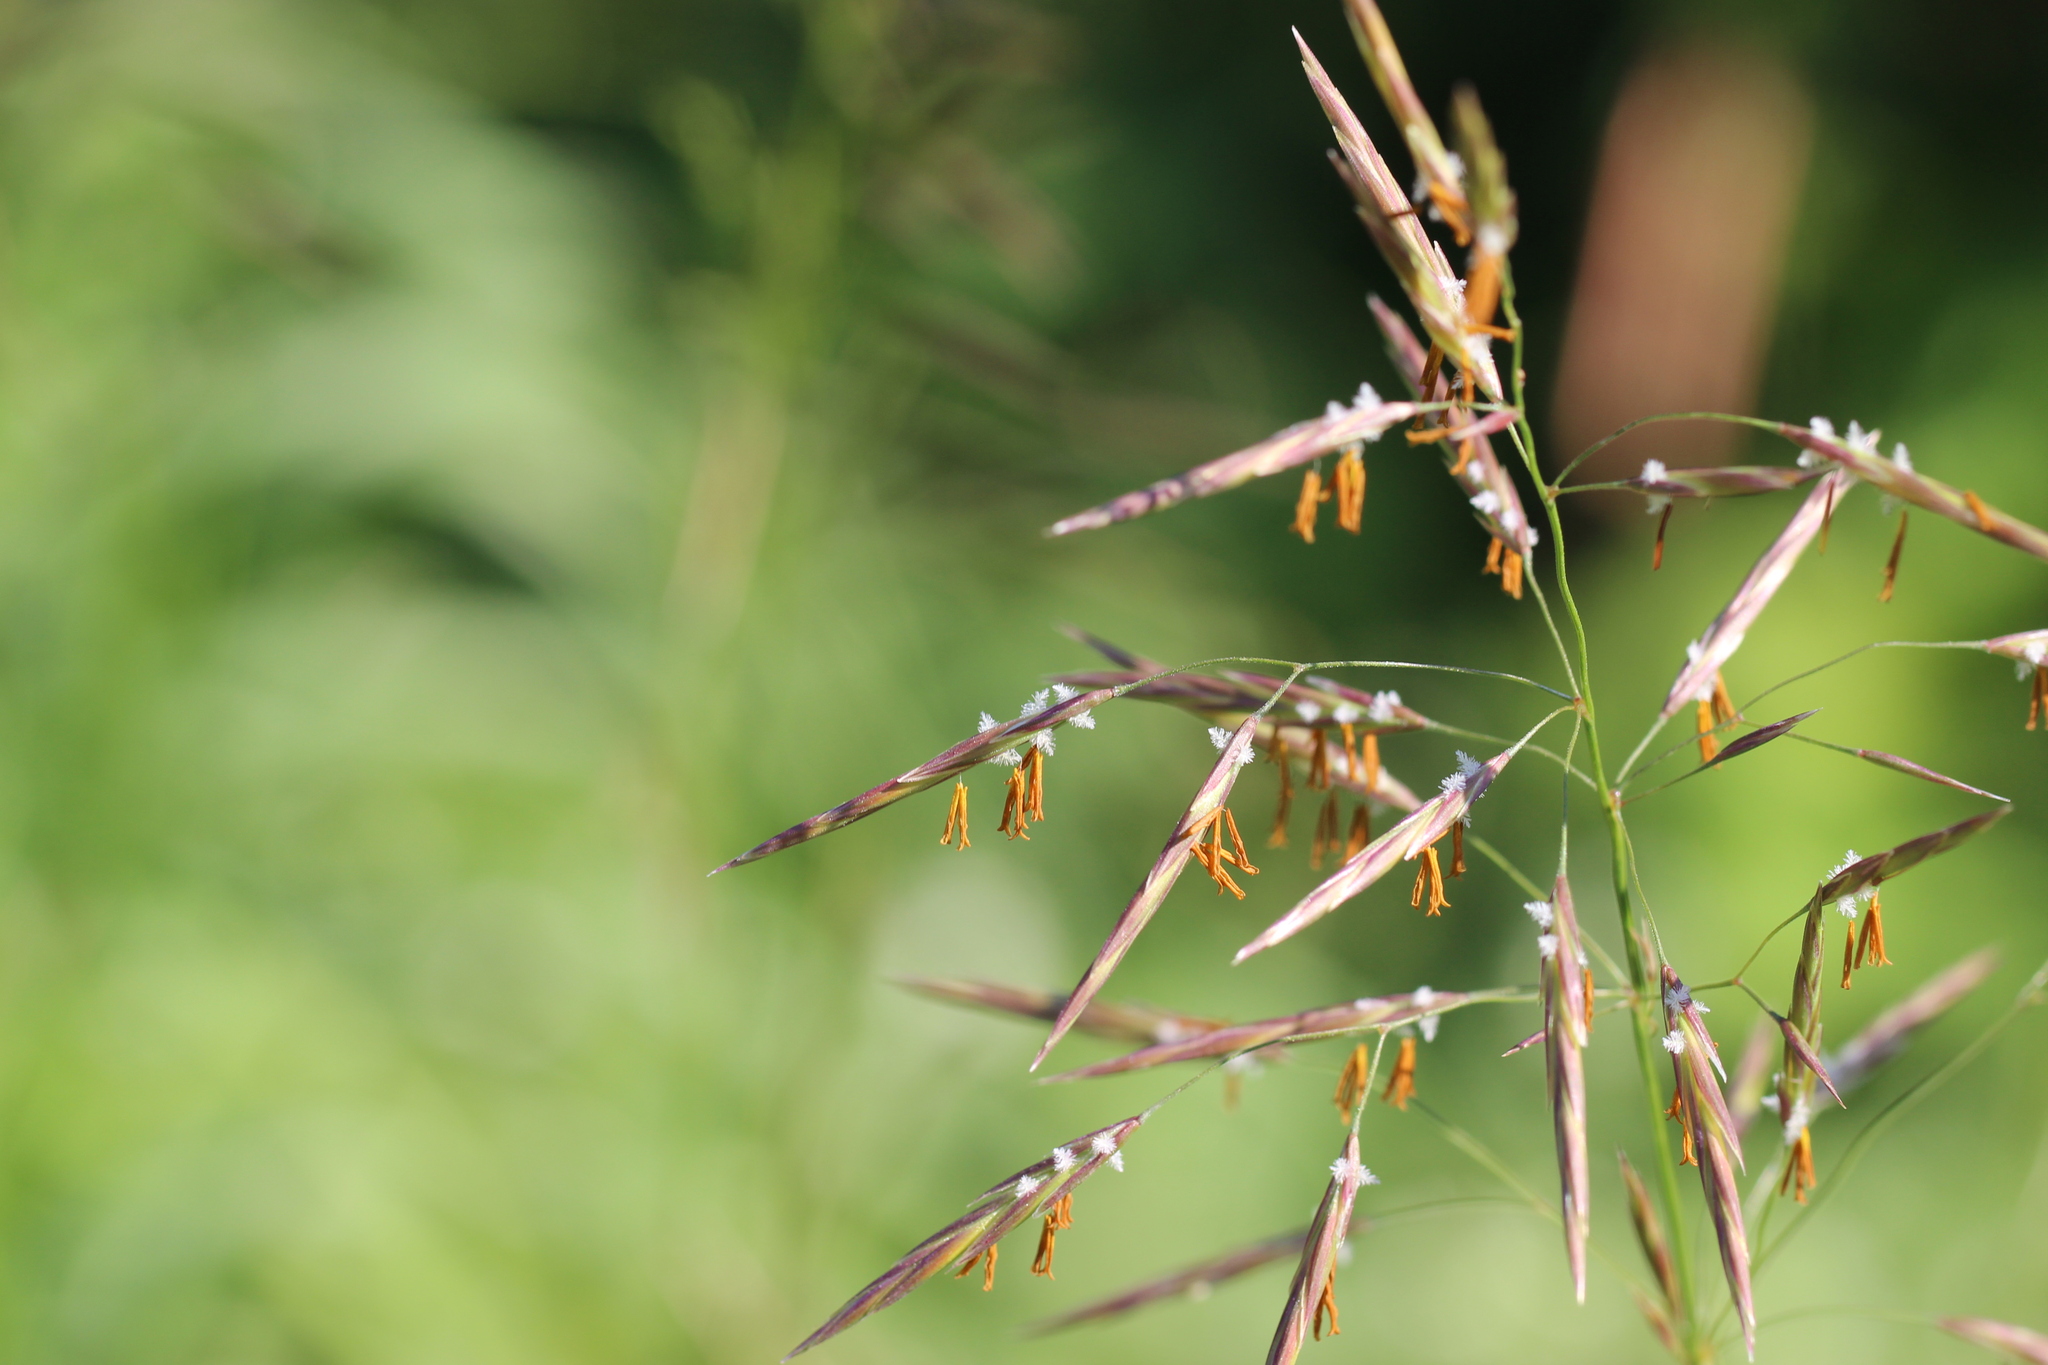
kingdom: Plantae
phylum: Tracheophyta
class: Liliopsida
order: Poales
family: Poaceae
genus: Bromus
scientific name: Bromus inermis
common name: Smooth brome
